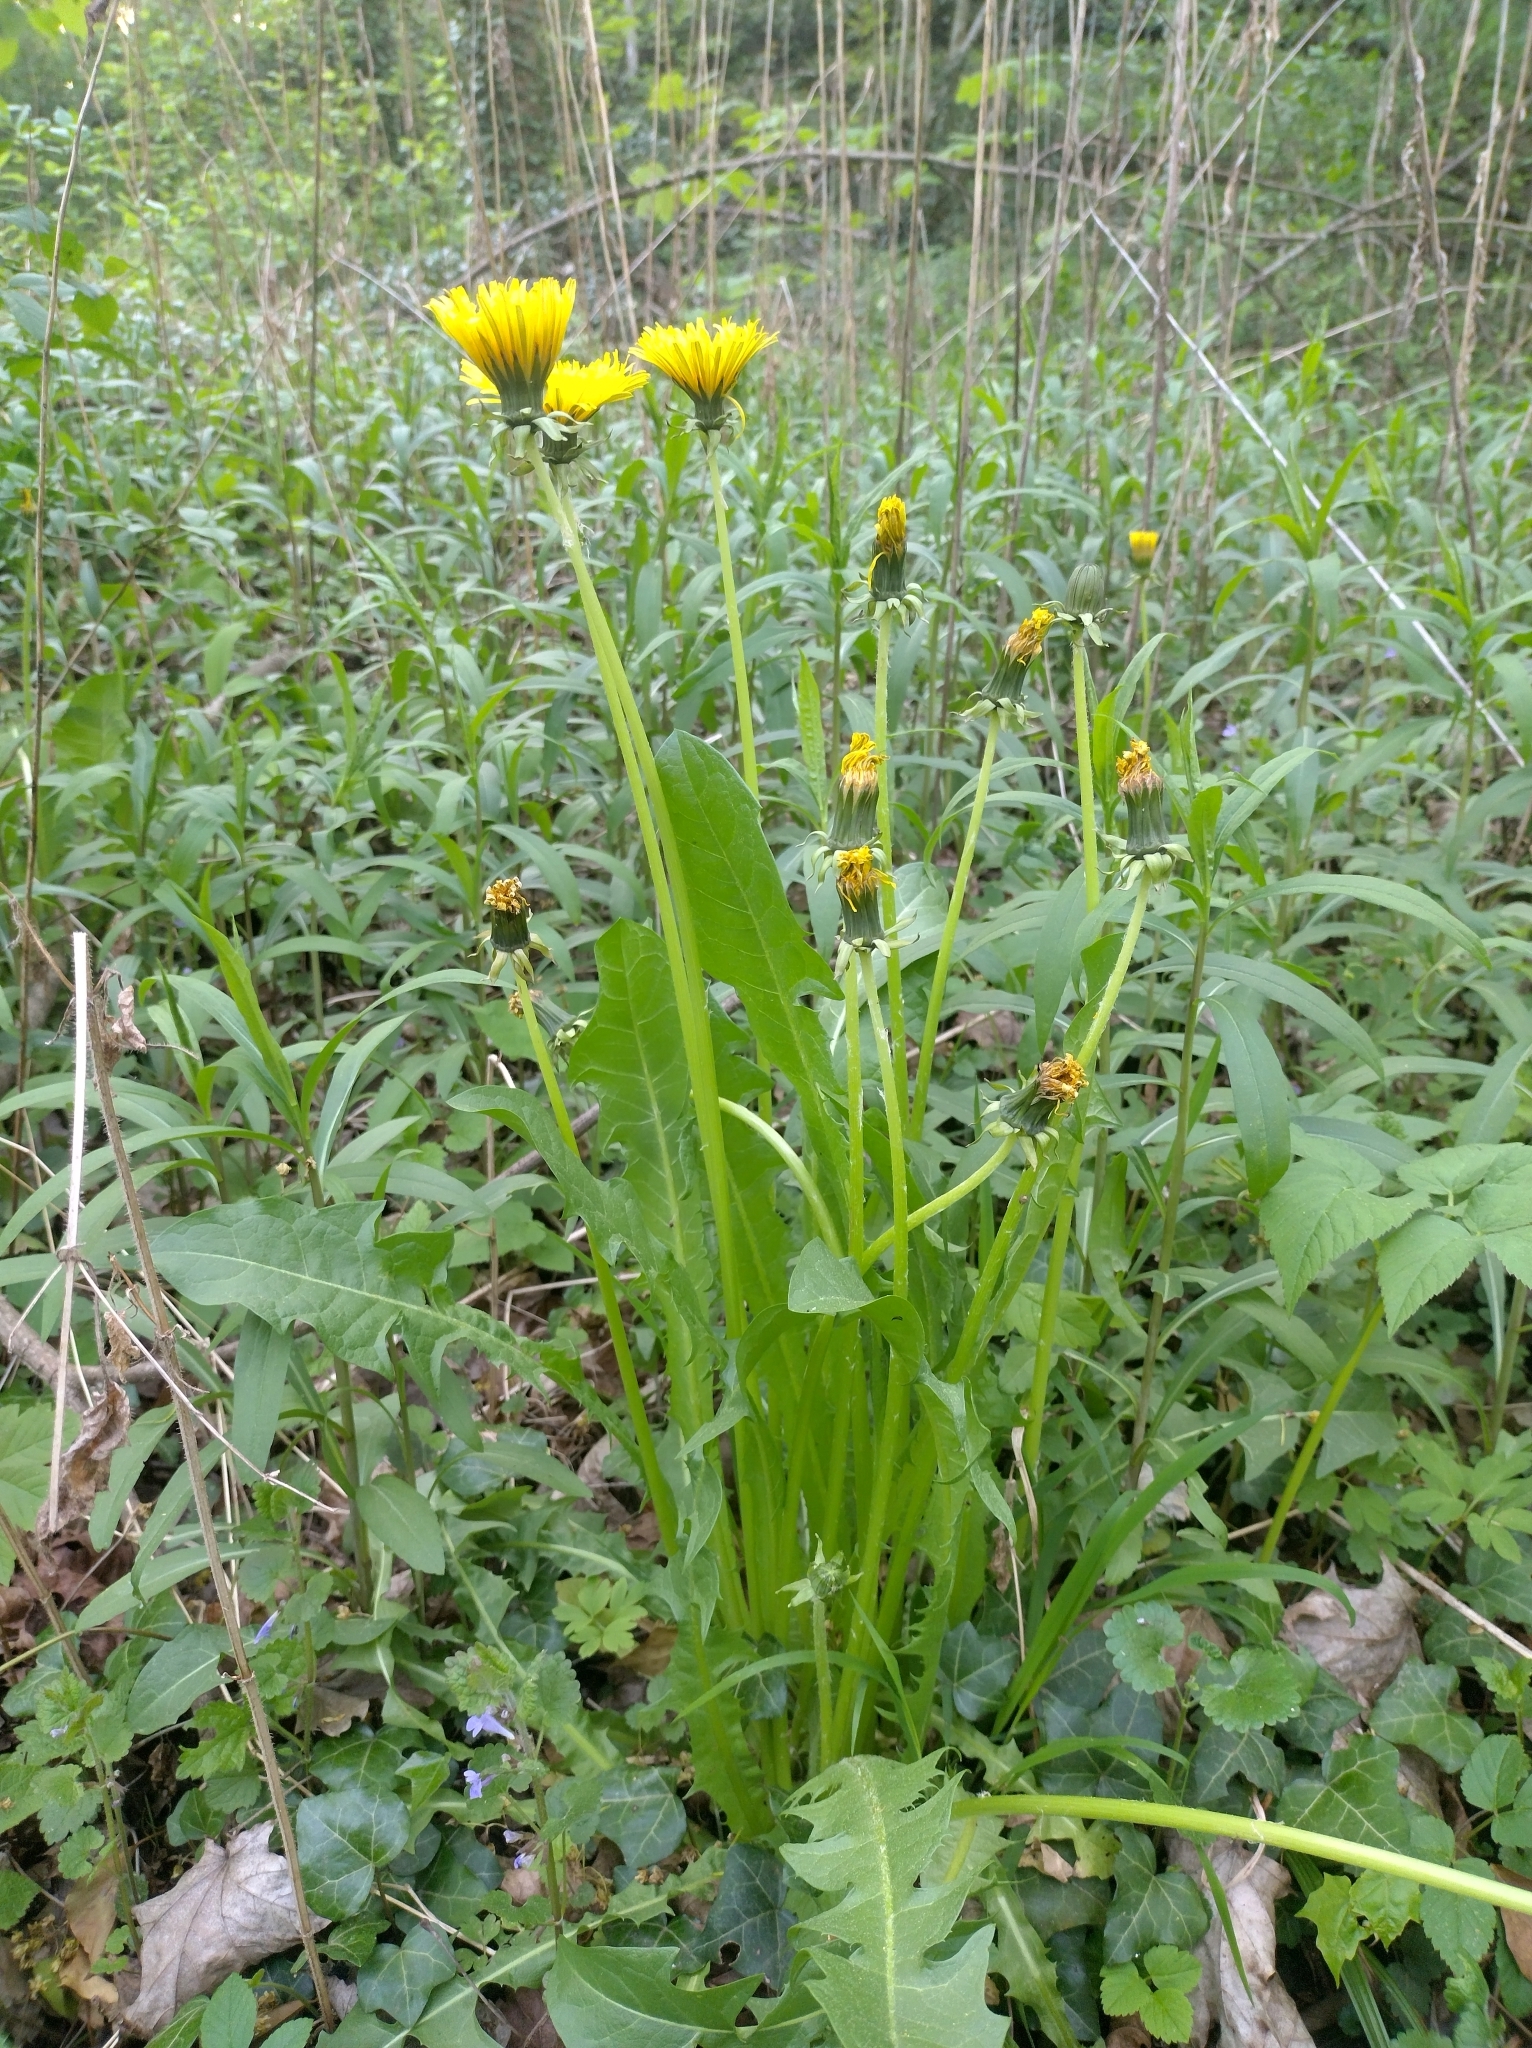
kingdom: Plantae
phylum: Tracheophyta
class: Magnoliopsida
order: Asterales
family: Asteraceae
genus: Taraxacum
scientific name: Taraxacum
